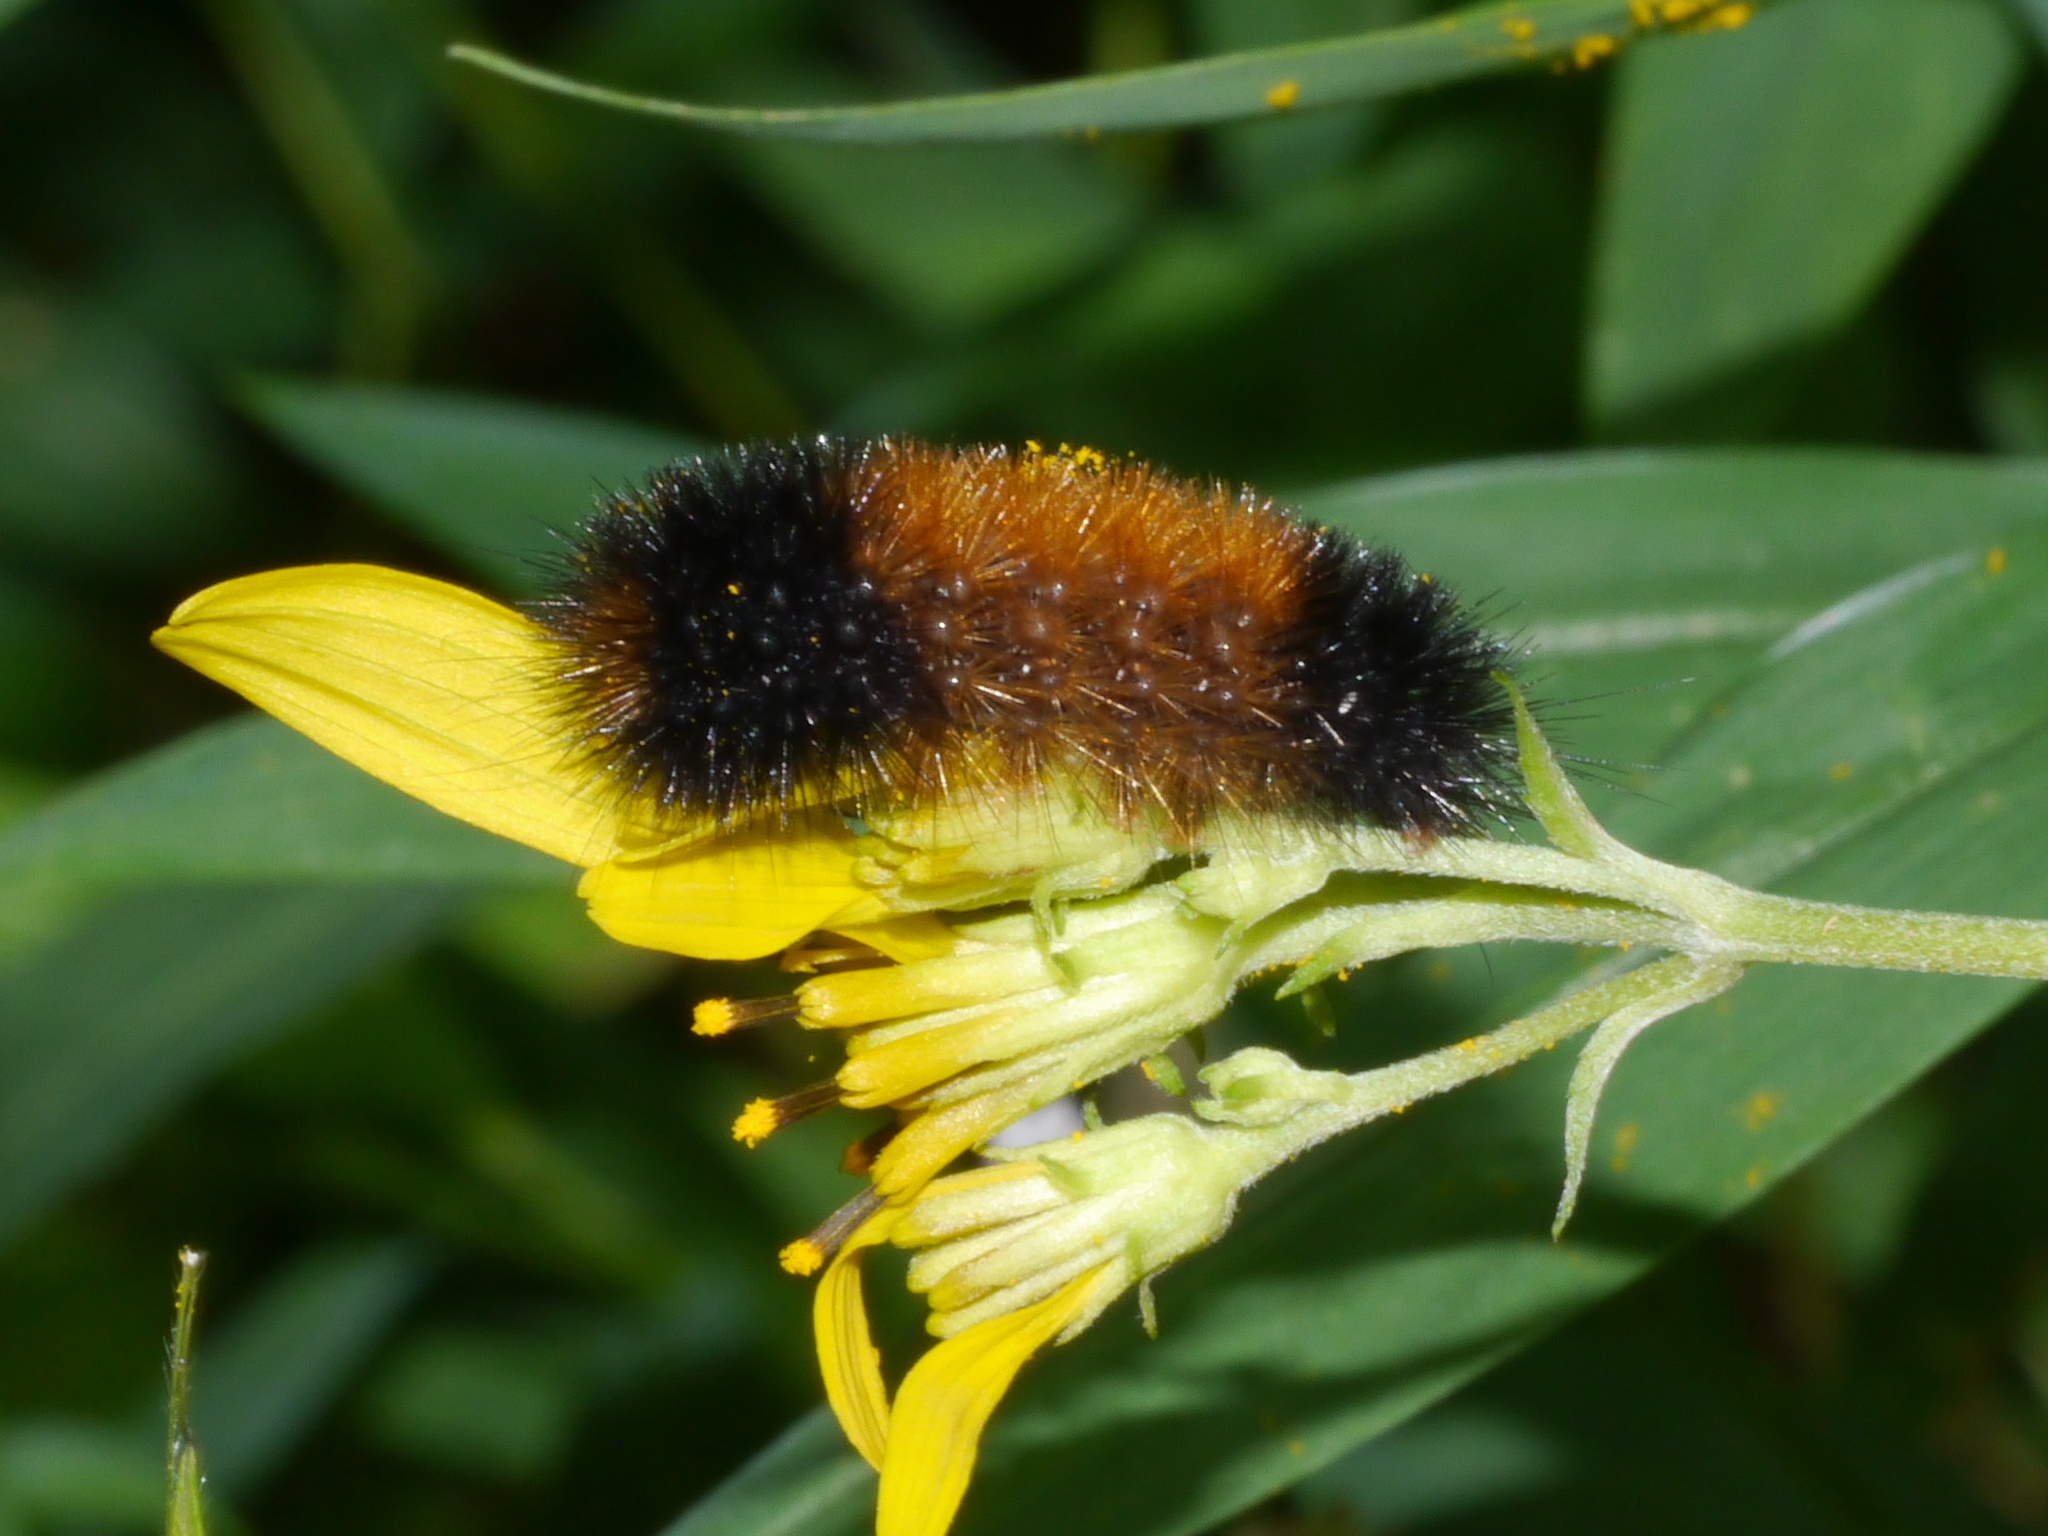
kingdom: Animalia
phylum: Arthropoda
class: Insecta
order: Lepidoptera
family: Erebidae
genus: Pyrrharctia
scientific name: Pyrrharctia isabella
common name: Isabella tiger moth
